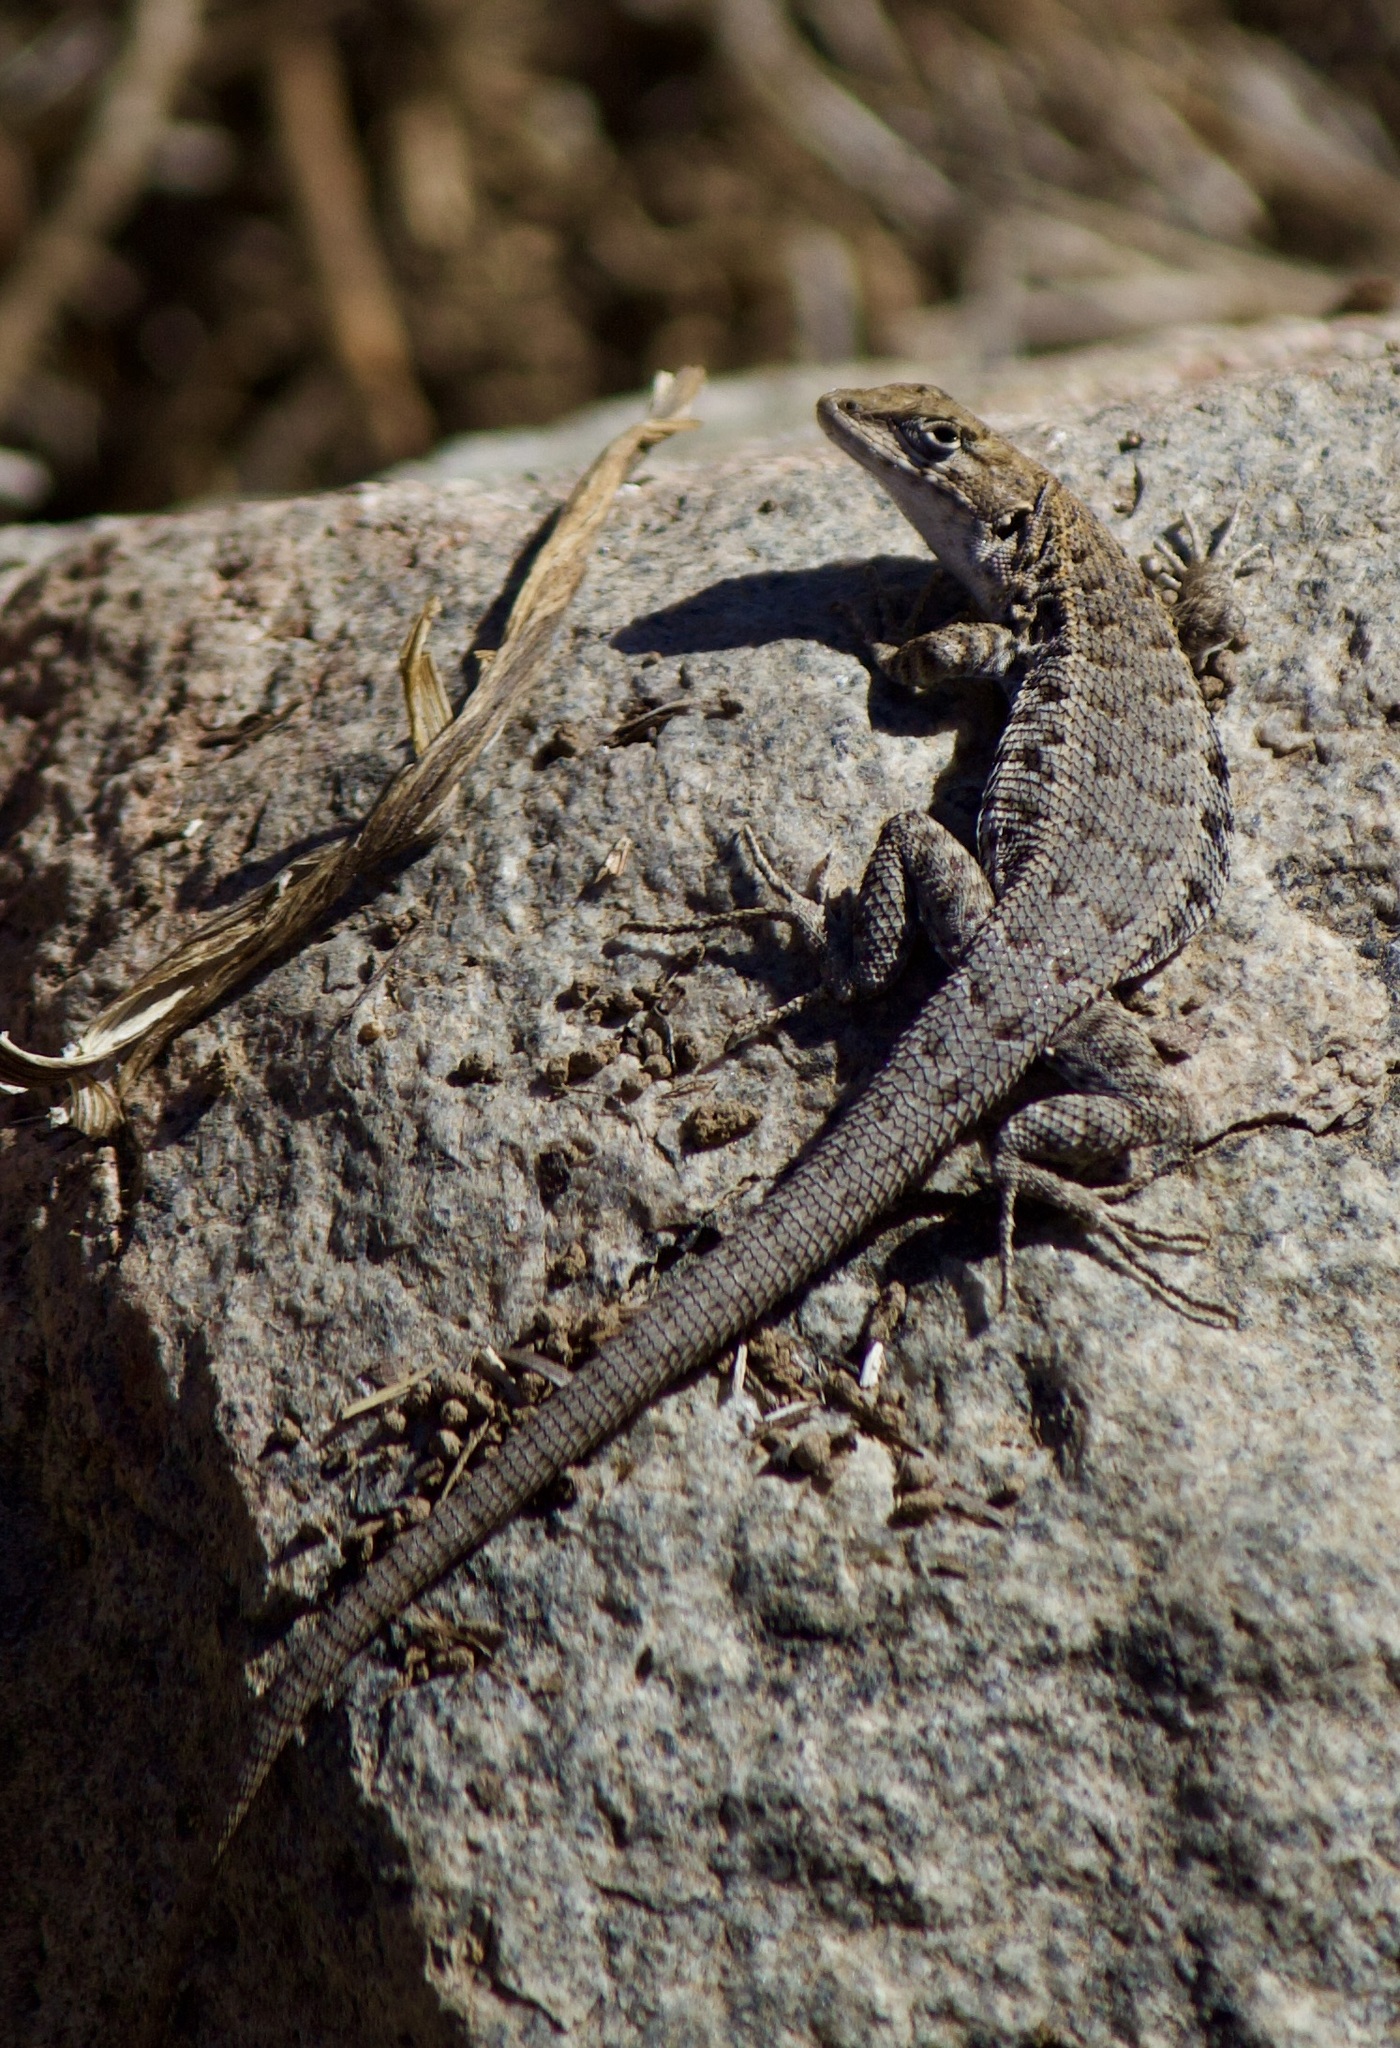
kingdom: Animalia
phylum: Chordata
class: Squamata
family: Liolaemidae
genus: Liolaemus
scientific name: Liolaemus platei
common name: Braided tree iguana
